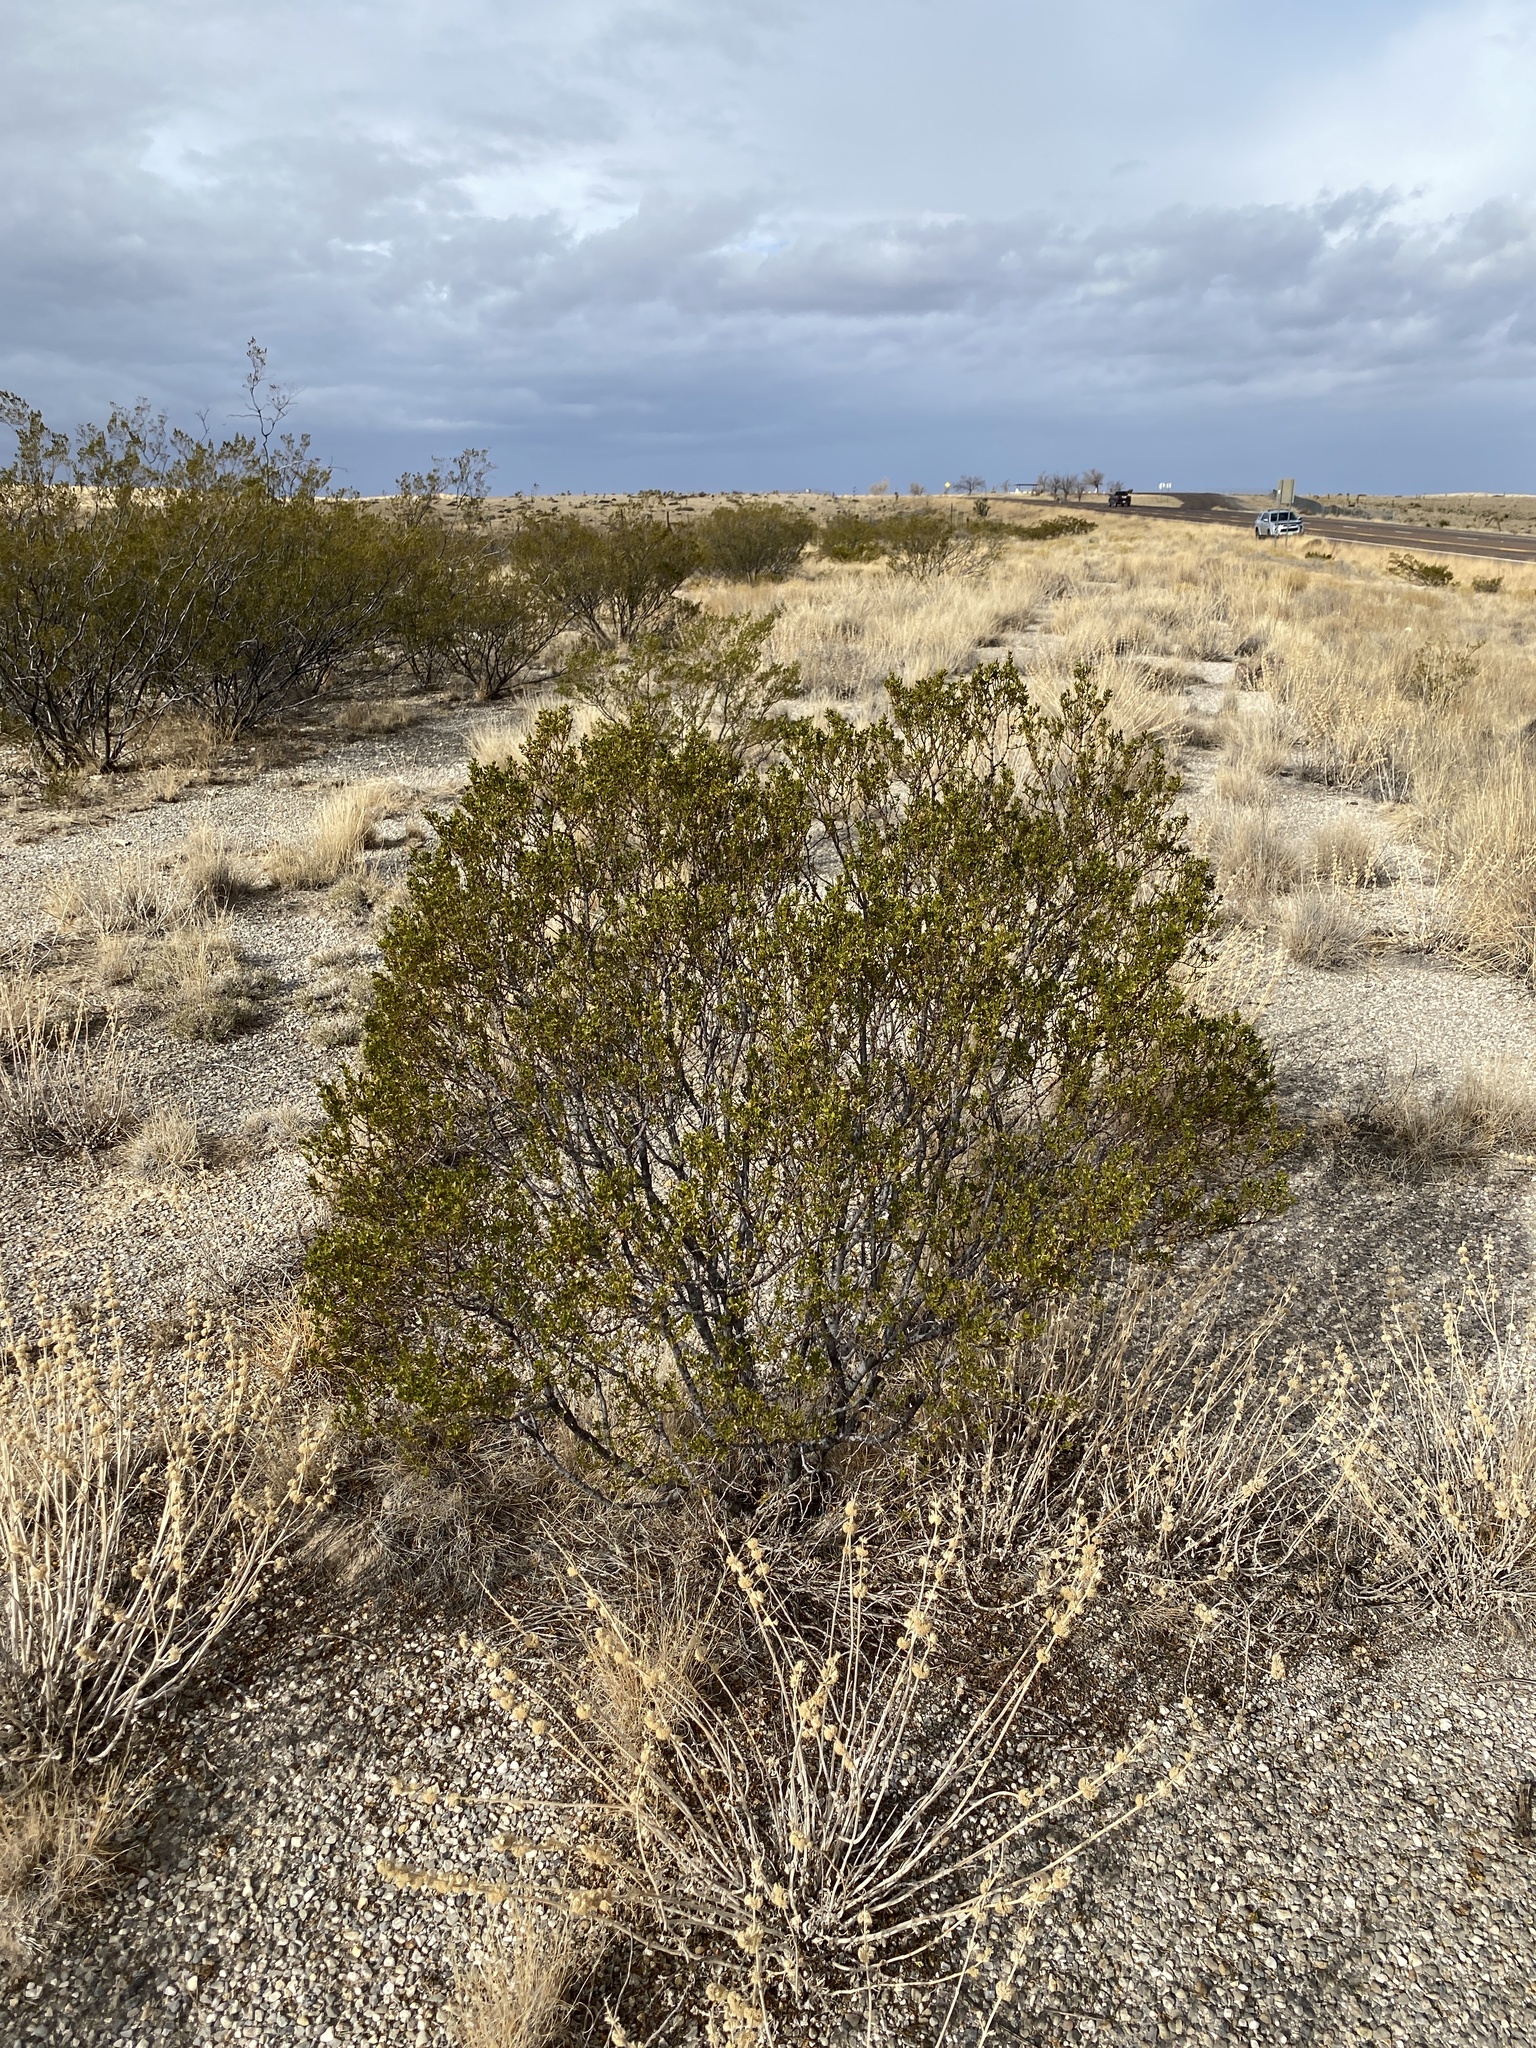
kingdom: Plantae
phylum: Tracheophyta
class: Magnoliopsida
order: Zygophyllales
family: Zygophyllaceae
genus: Larrea
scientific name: Larrea tridentata
